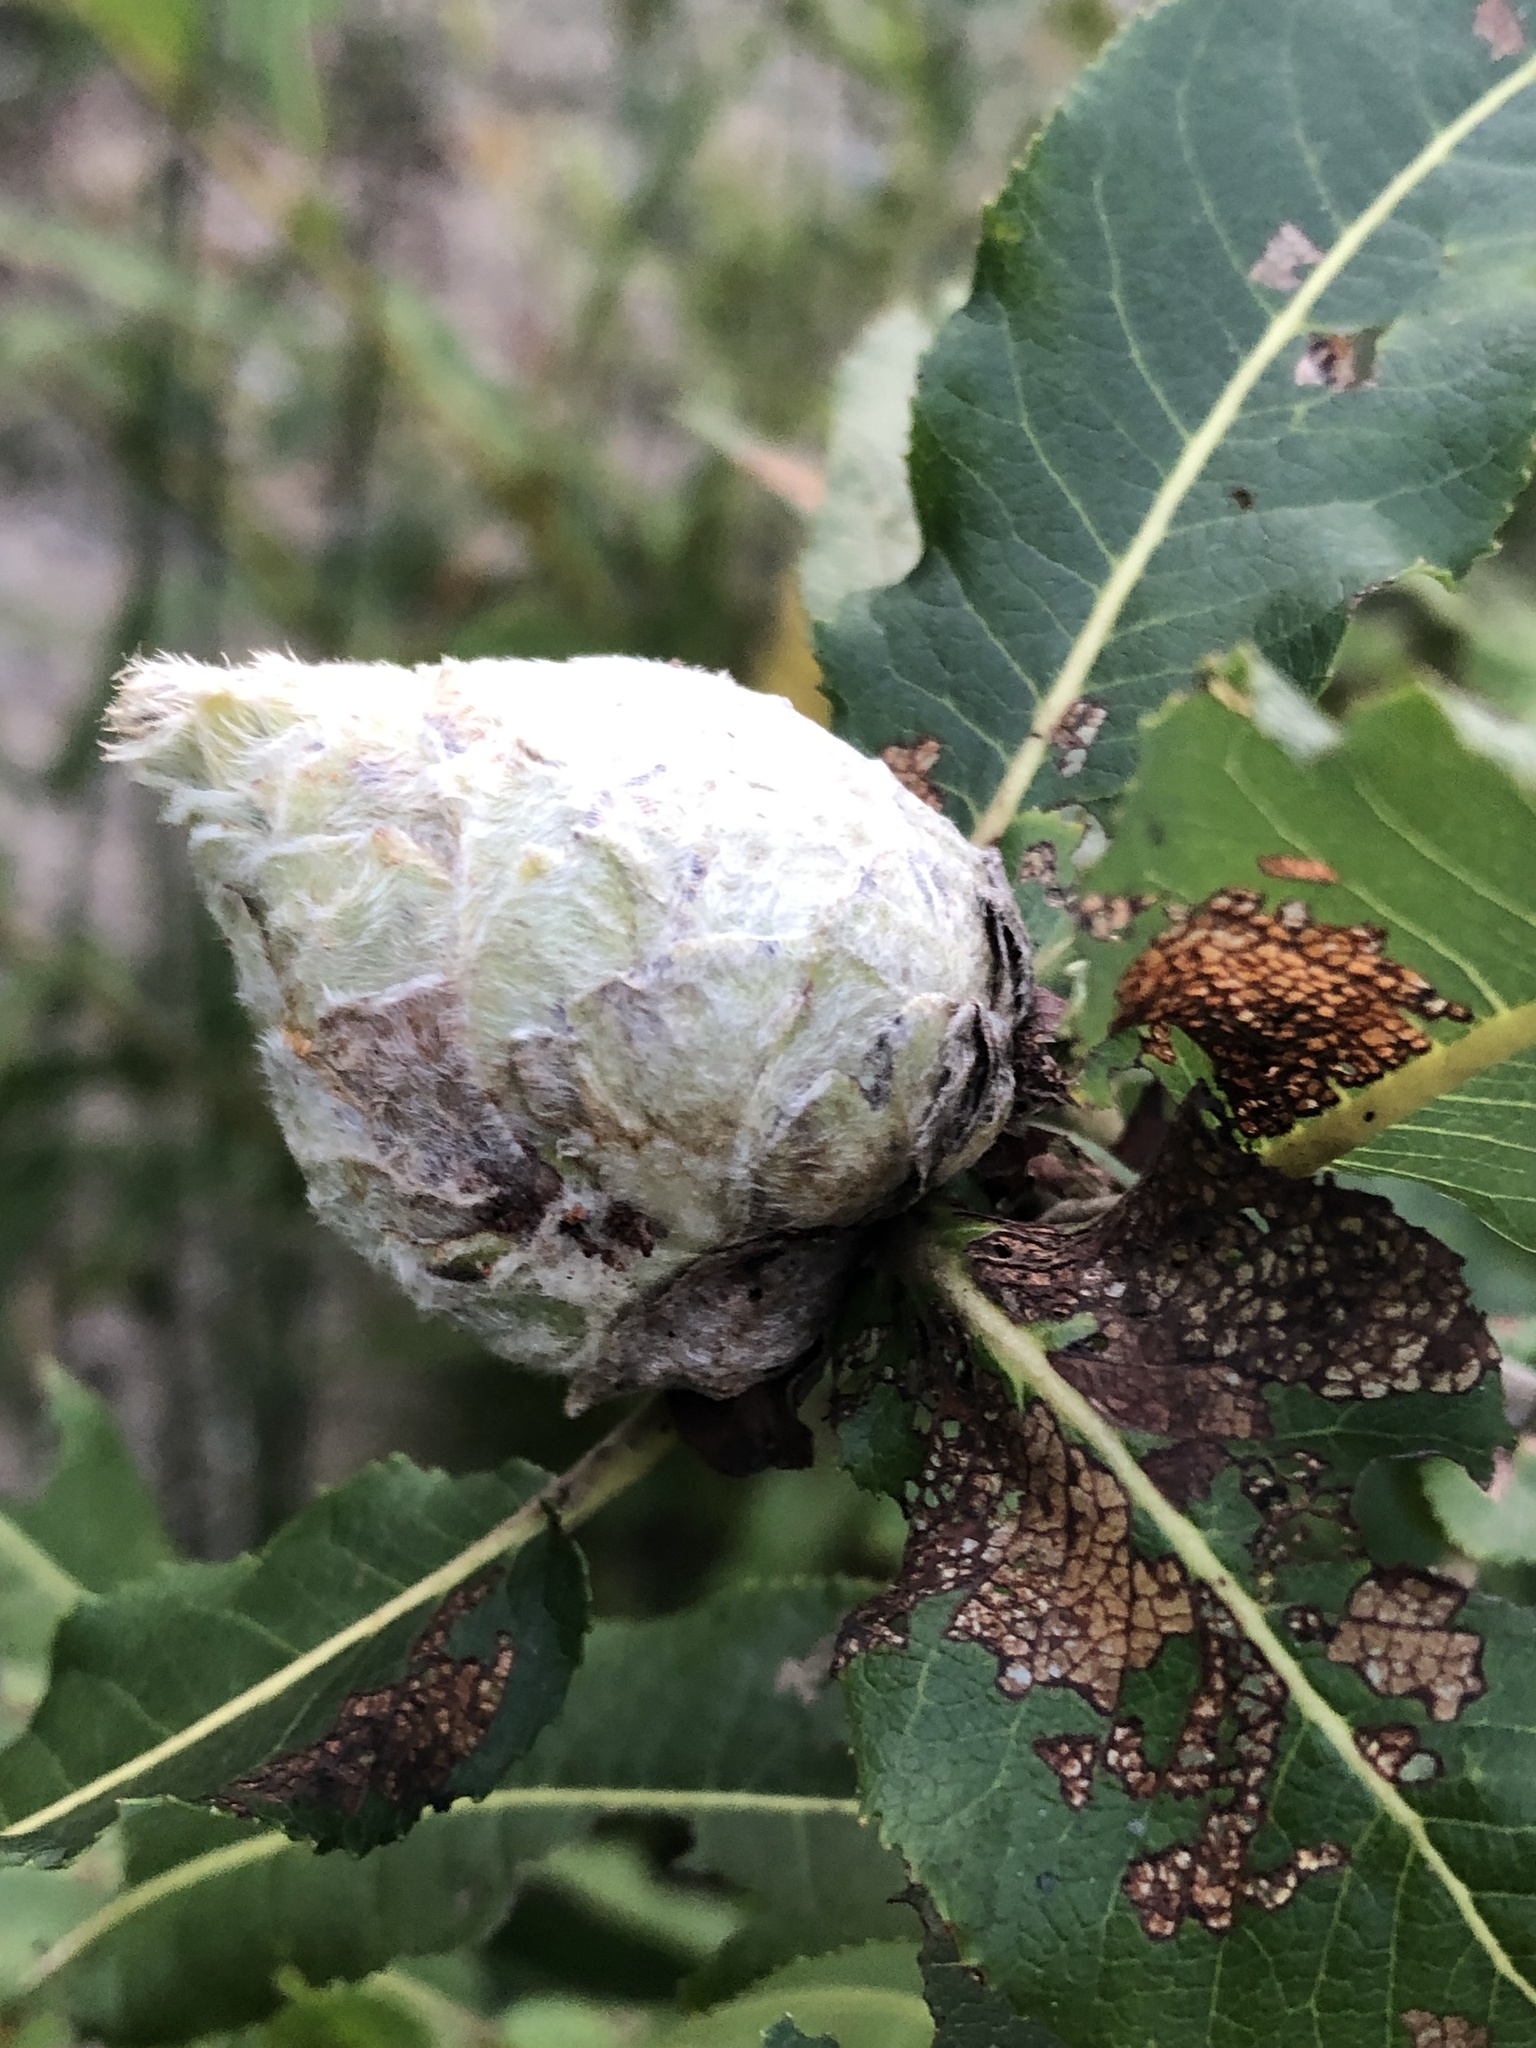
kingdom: Animalia
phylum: Arthropoda
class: Insecta
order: Diptera
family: Cecidomyiidae
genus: Rabdophaga
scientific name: Rabdophaga strobiloides
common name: Willow pinecone gall midge
